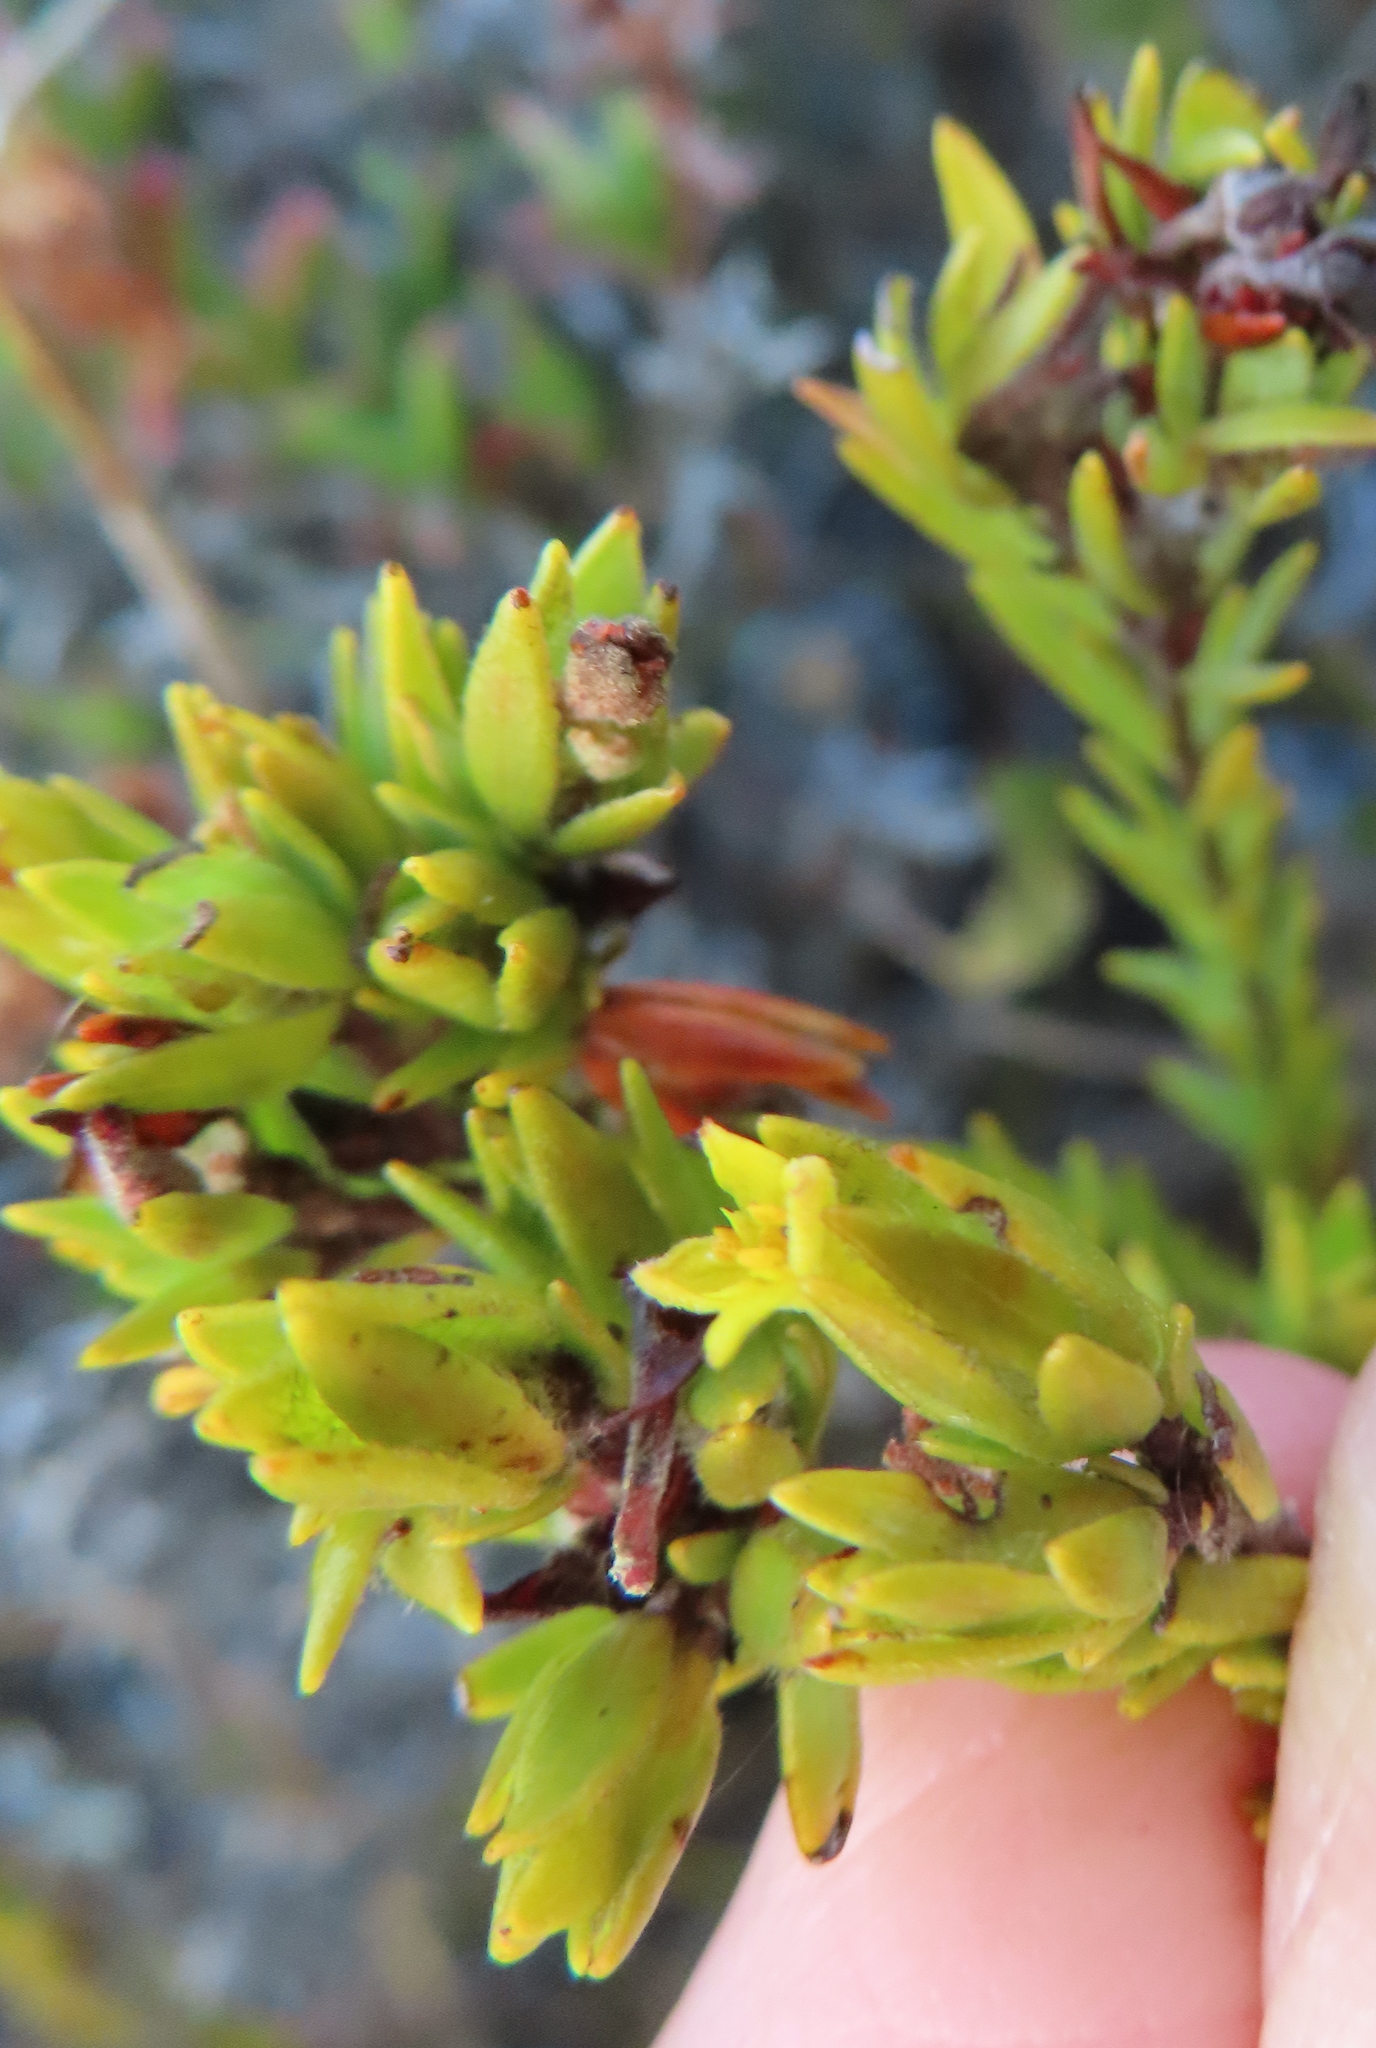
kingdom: Plantae
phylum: Tracheophyta
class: Magnoliopsida
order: Malvales
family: Thymelaeaceae
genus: Gnidia
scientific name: Gnidia juniperifolia
